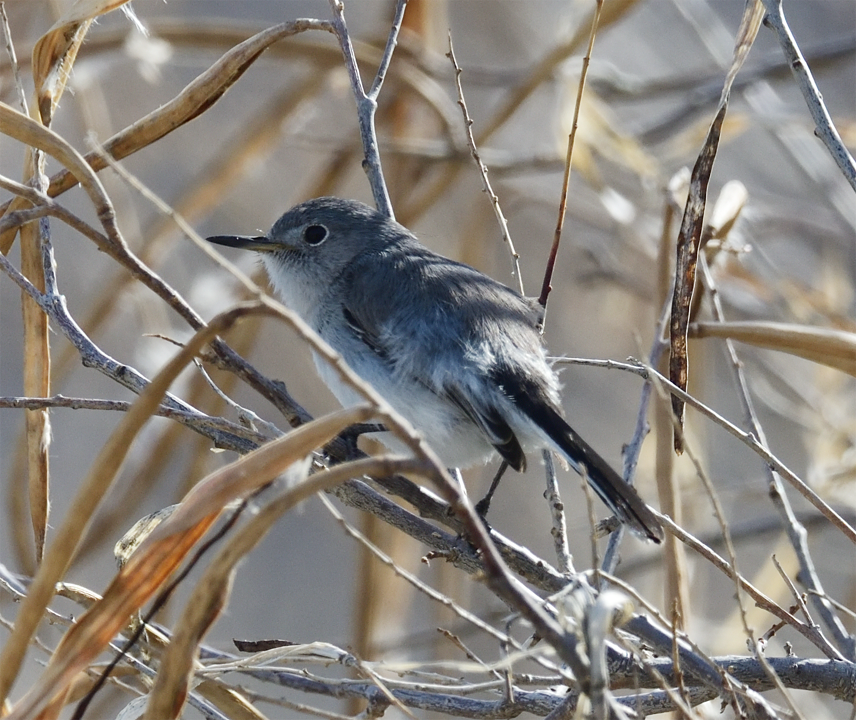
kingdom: Animalia
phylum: Chordata
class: Aves
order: Passeriformes
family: Polioptilidae
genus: Polioptila
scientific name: Polioptila caerulea
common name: Blue-gray gnatcatcher
